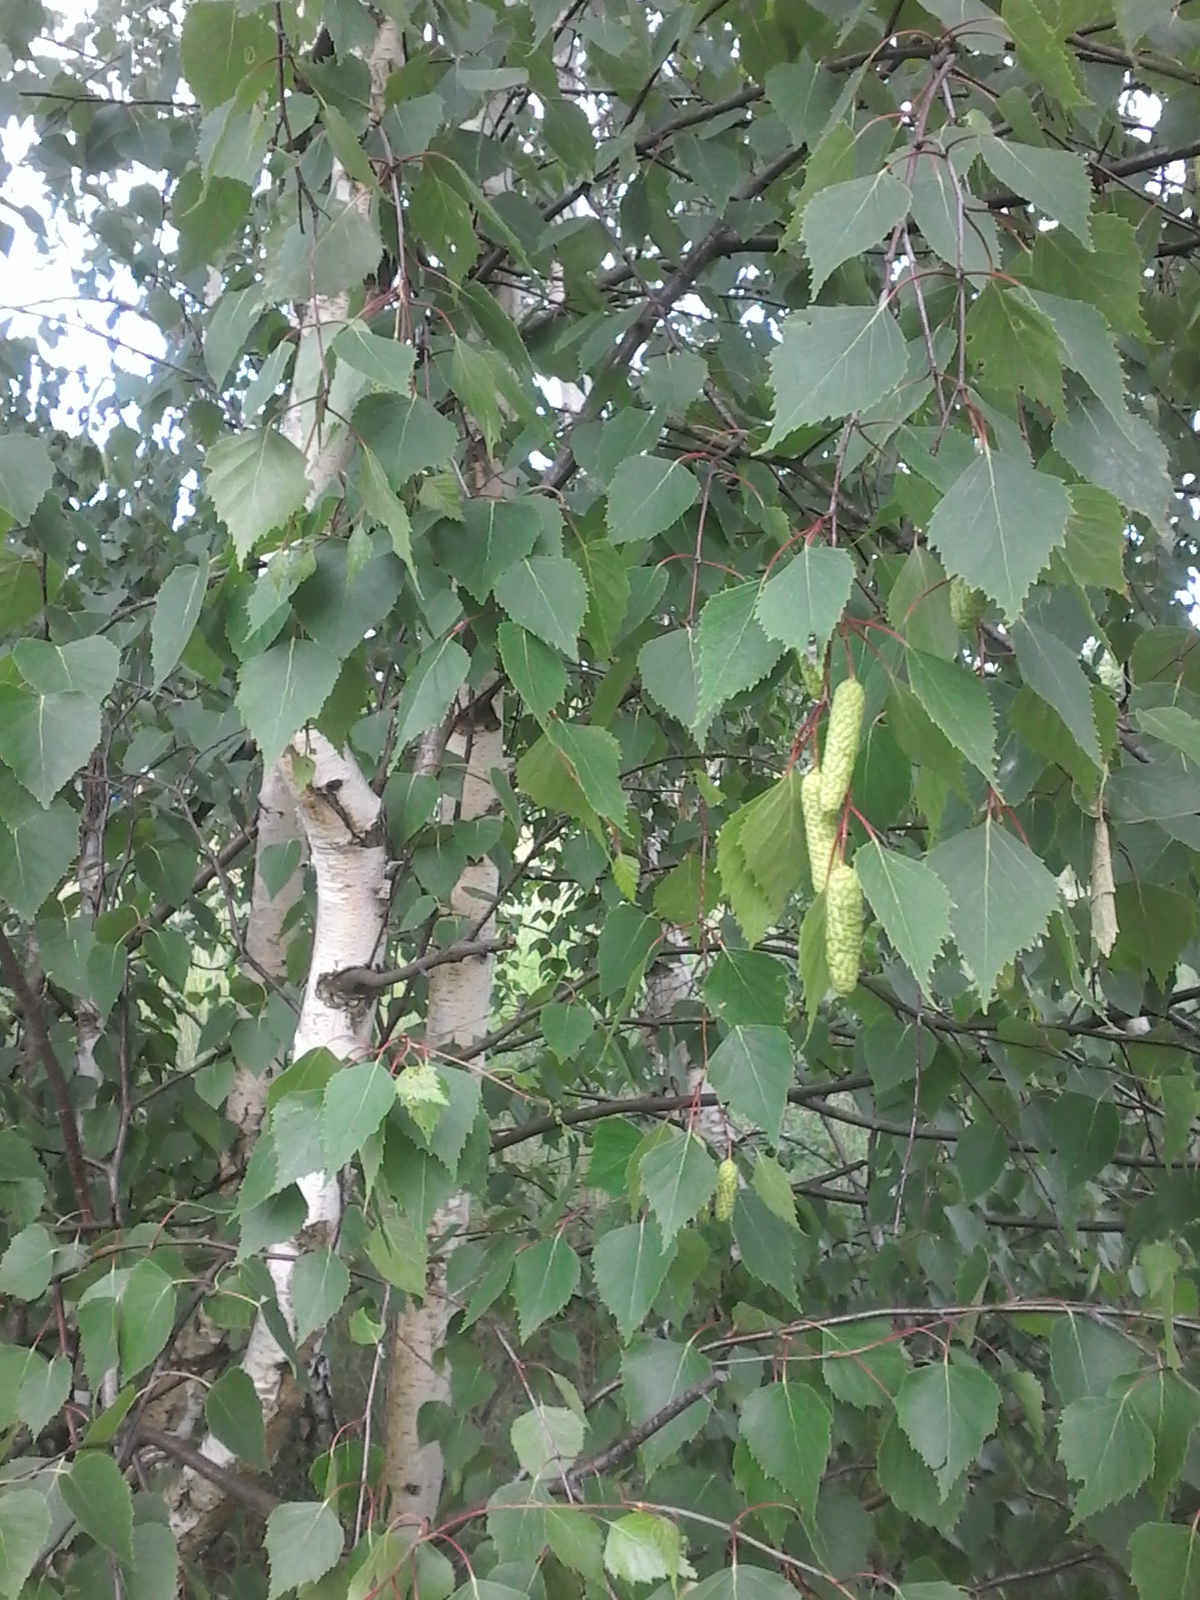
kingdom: Plantae
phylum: Tracheophyta
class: Magnoliopsida
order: Fagales
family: Betulaceae
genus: Betula
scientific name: Betula pendula
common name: Silver birch
